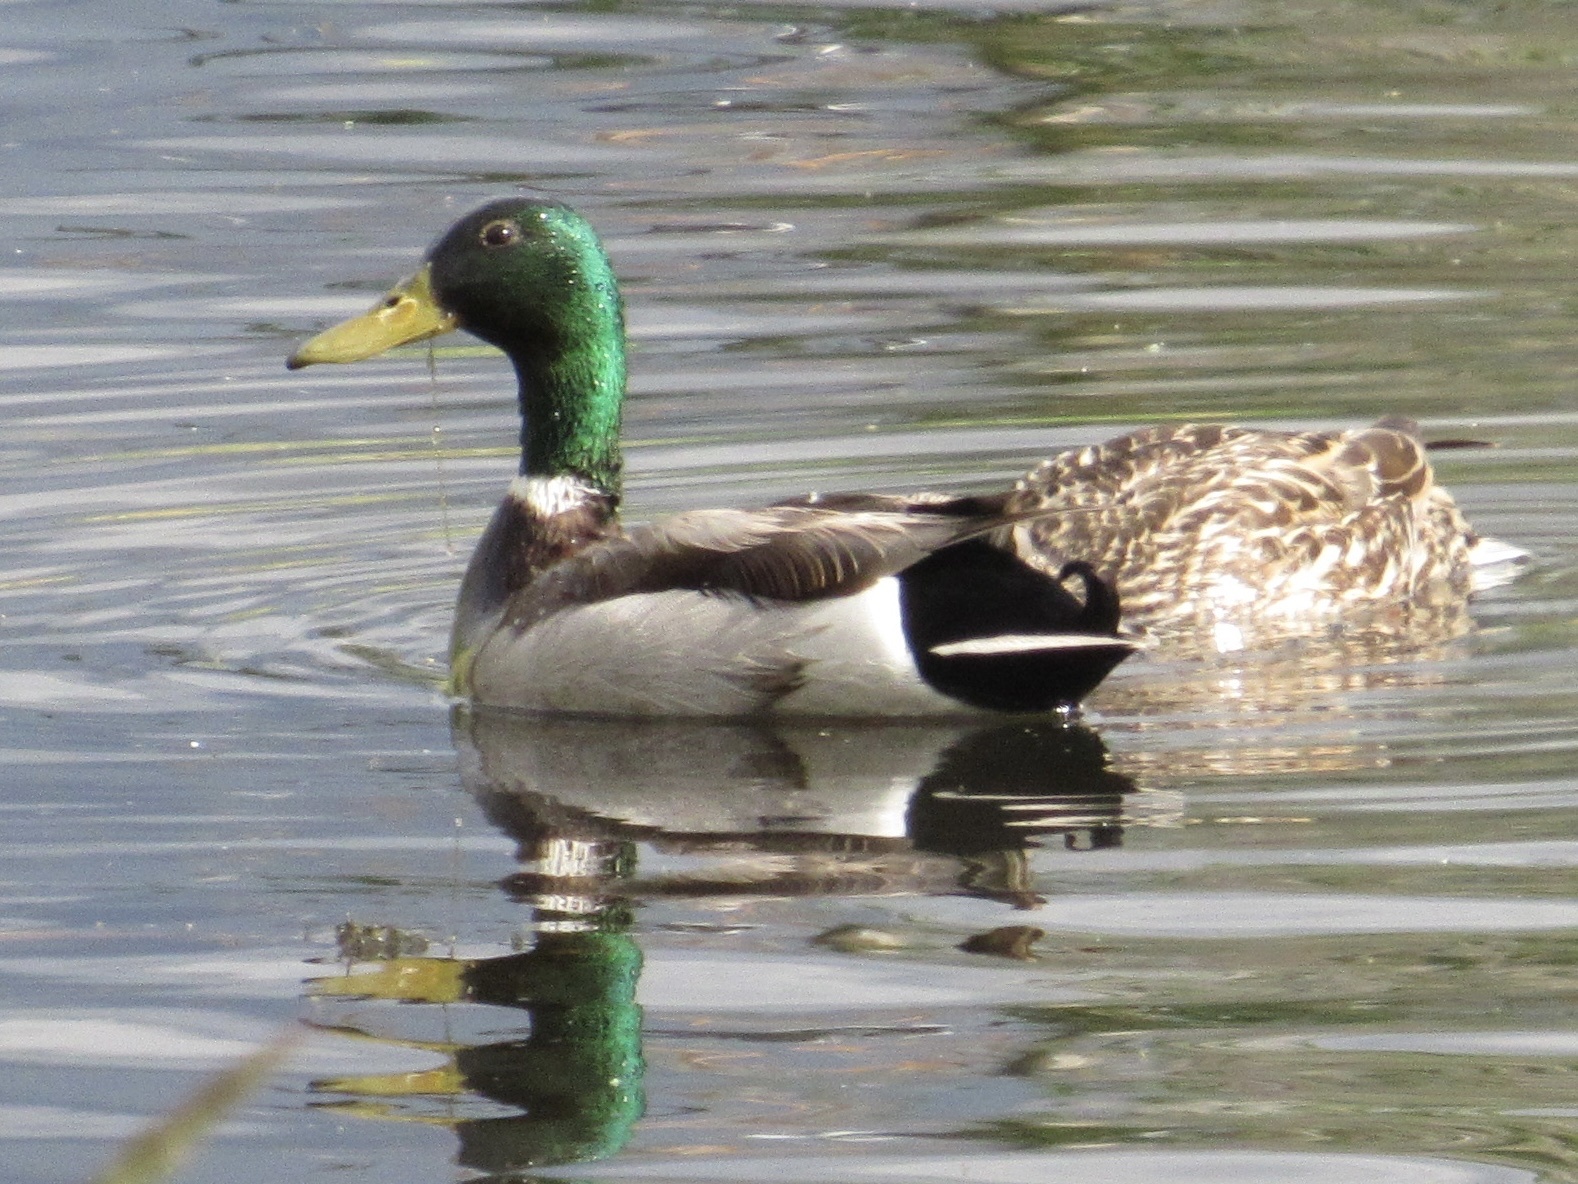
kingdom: Animalia
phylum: Chordata
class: Aves
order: Anseriformes
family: Anatidae
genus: Anas
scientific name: Anas platyrhynchos
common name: Mallard
